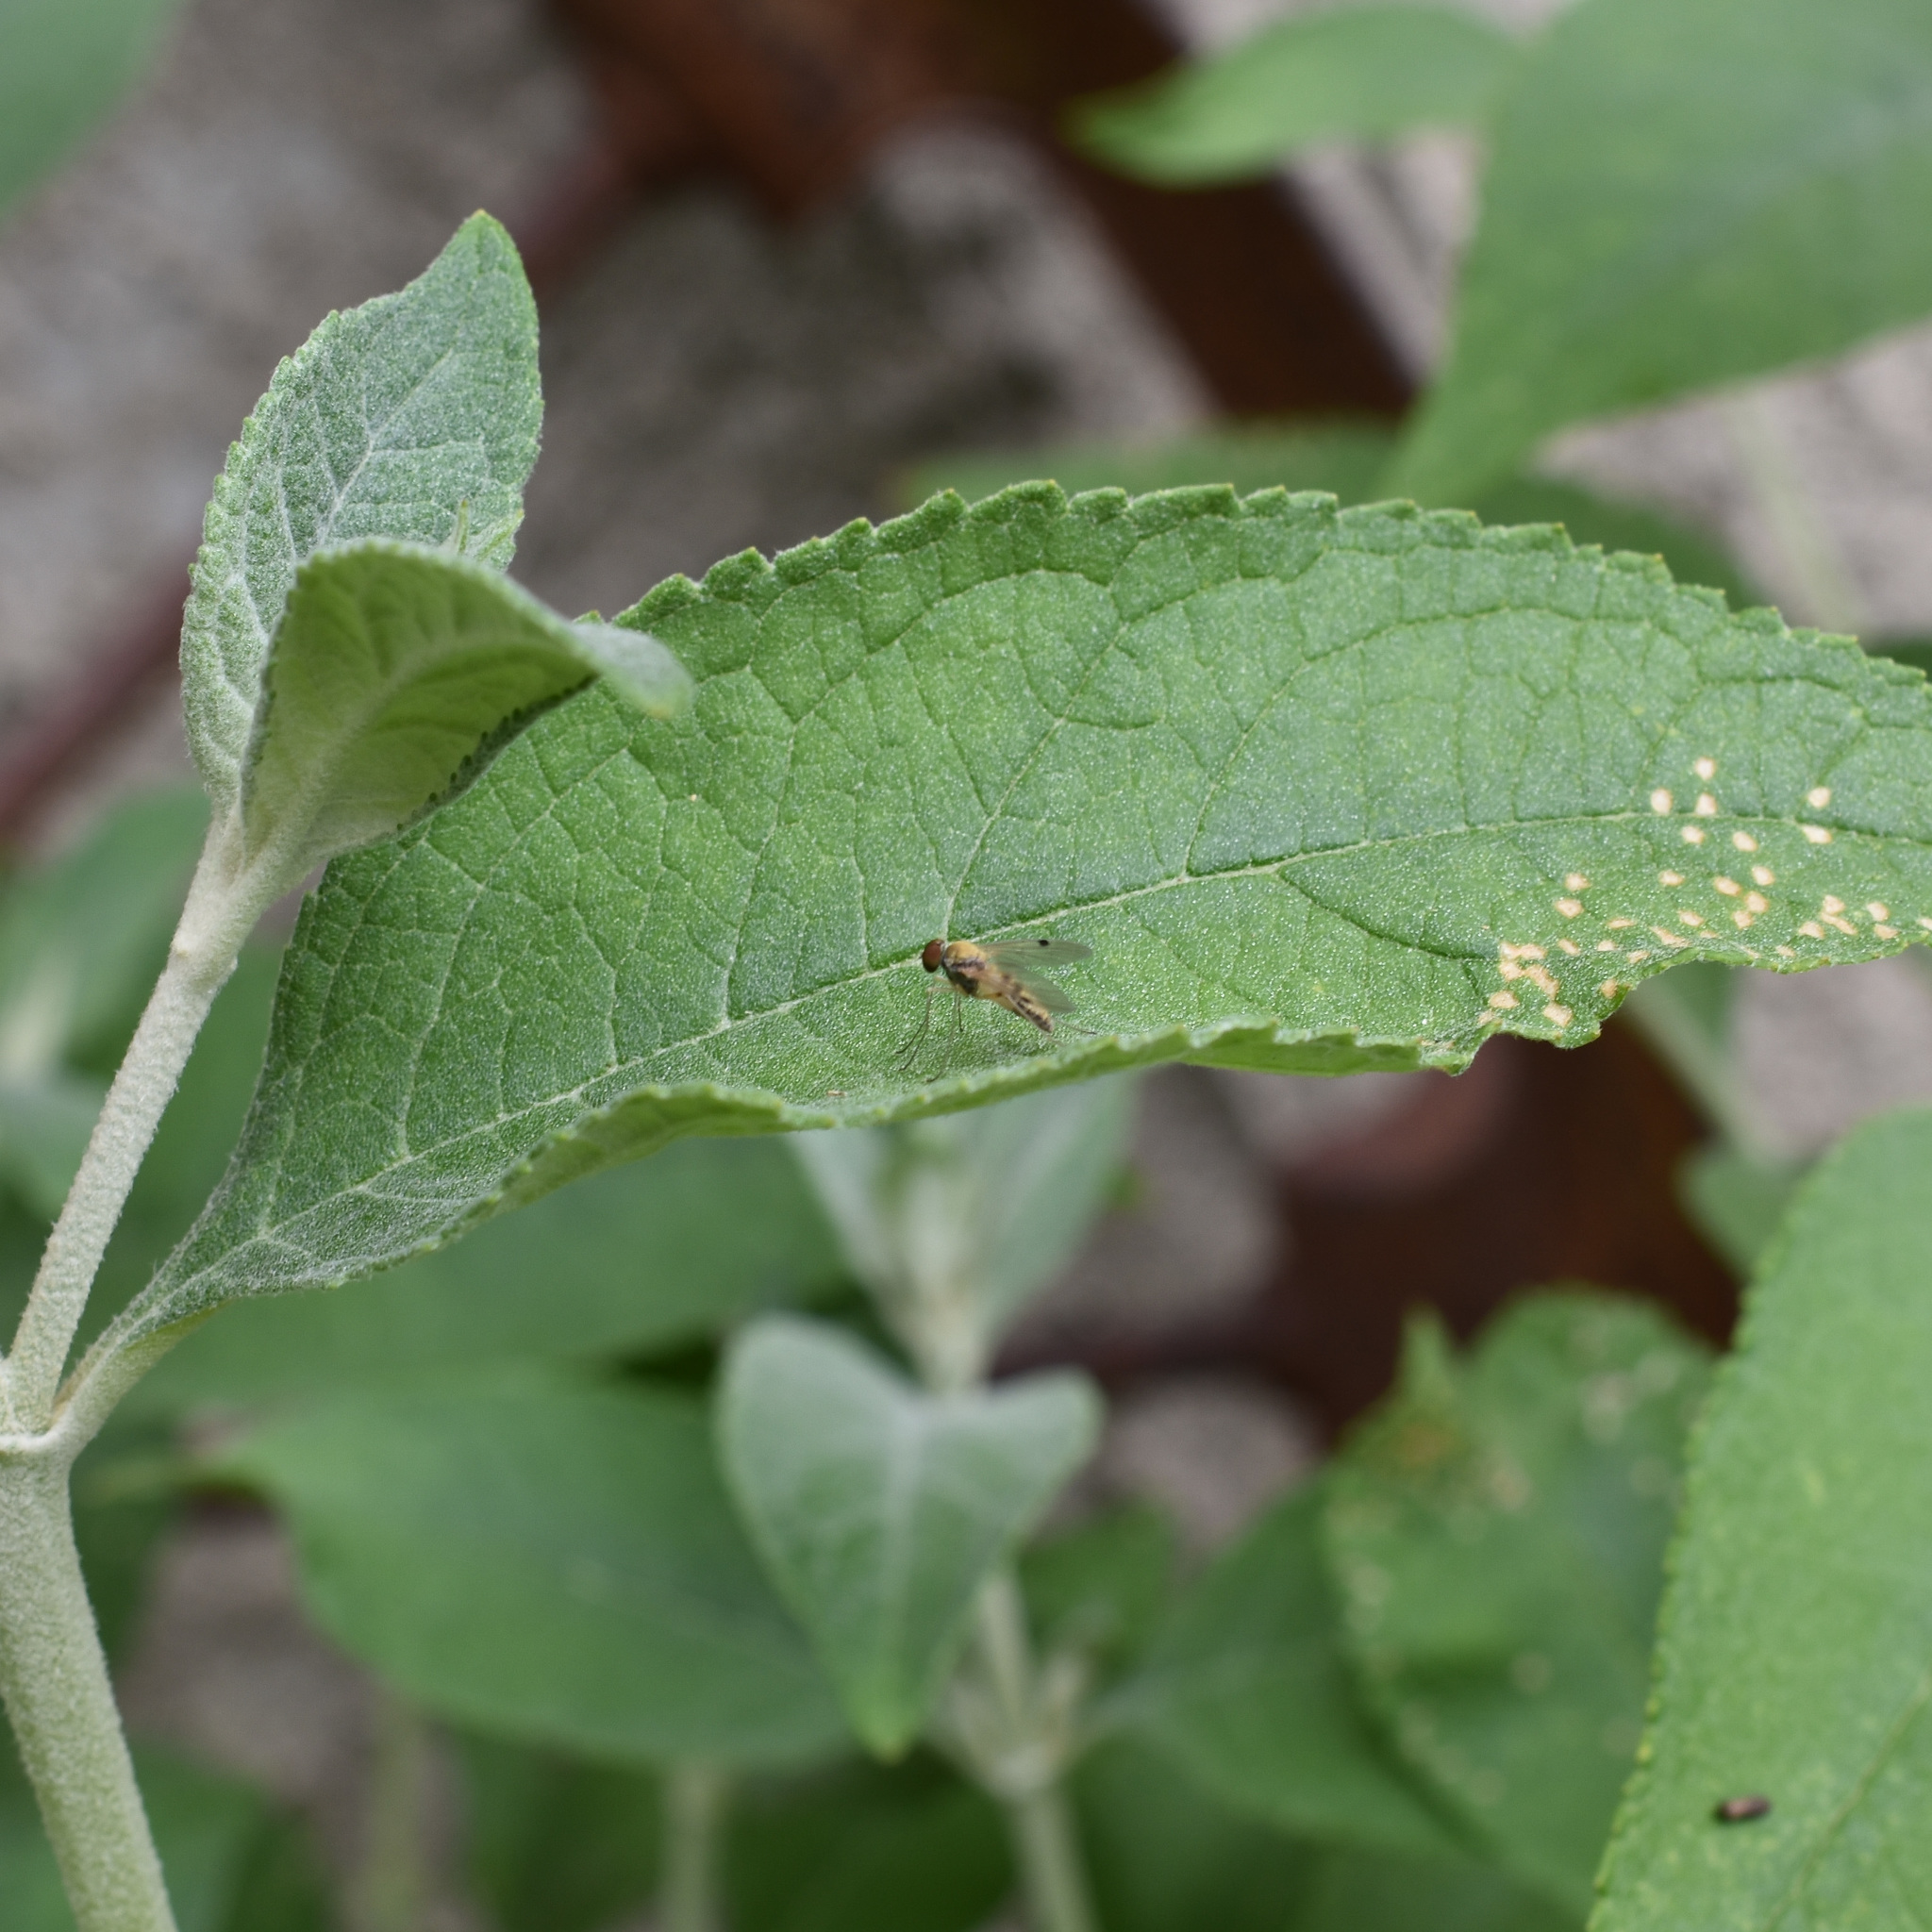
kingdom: Animalia
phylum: Arthropoda
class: Insecta
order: Diptera
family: Rhagionidae
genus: Chrysopilus
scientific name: Chrysopilus modestus
